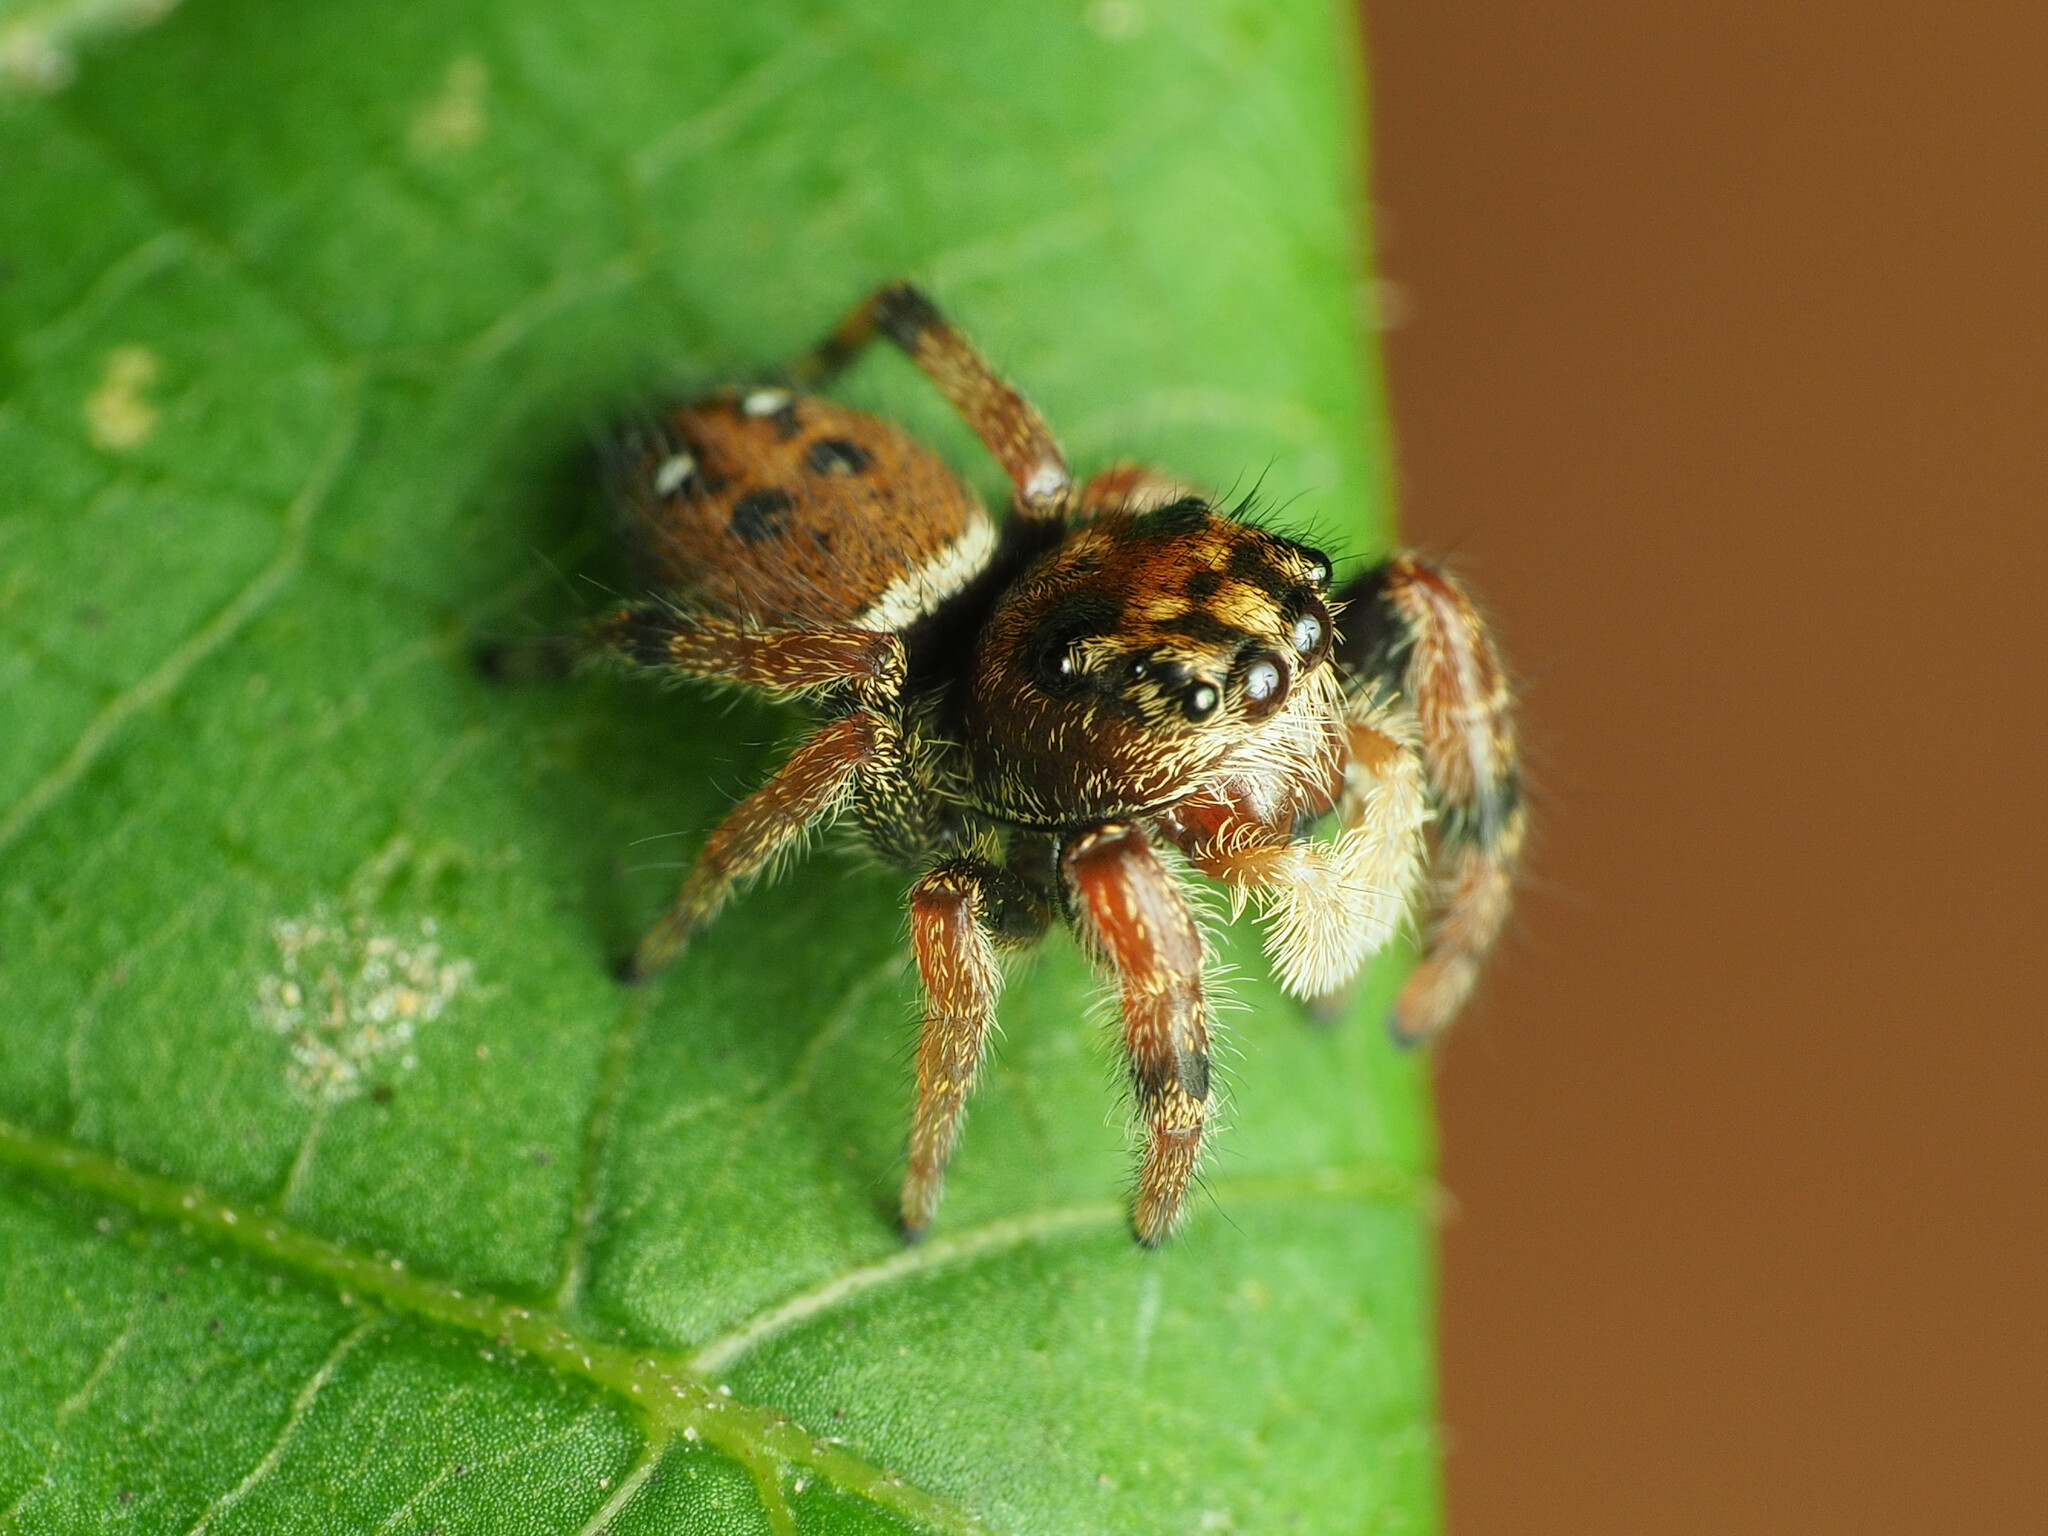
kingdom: Animalia
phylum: Arthropoda
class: Arachnida
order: Araneae
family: Salticidae
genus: Phidippus
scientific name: Phidippus whitmani
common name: Whitman's jumping spider
